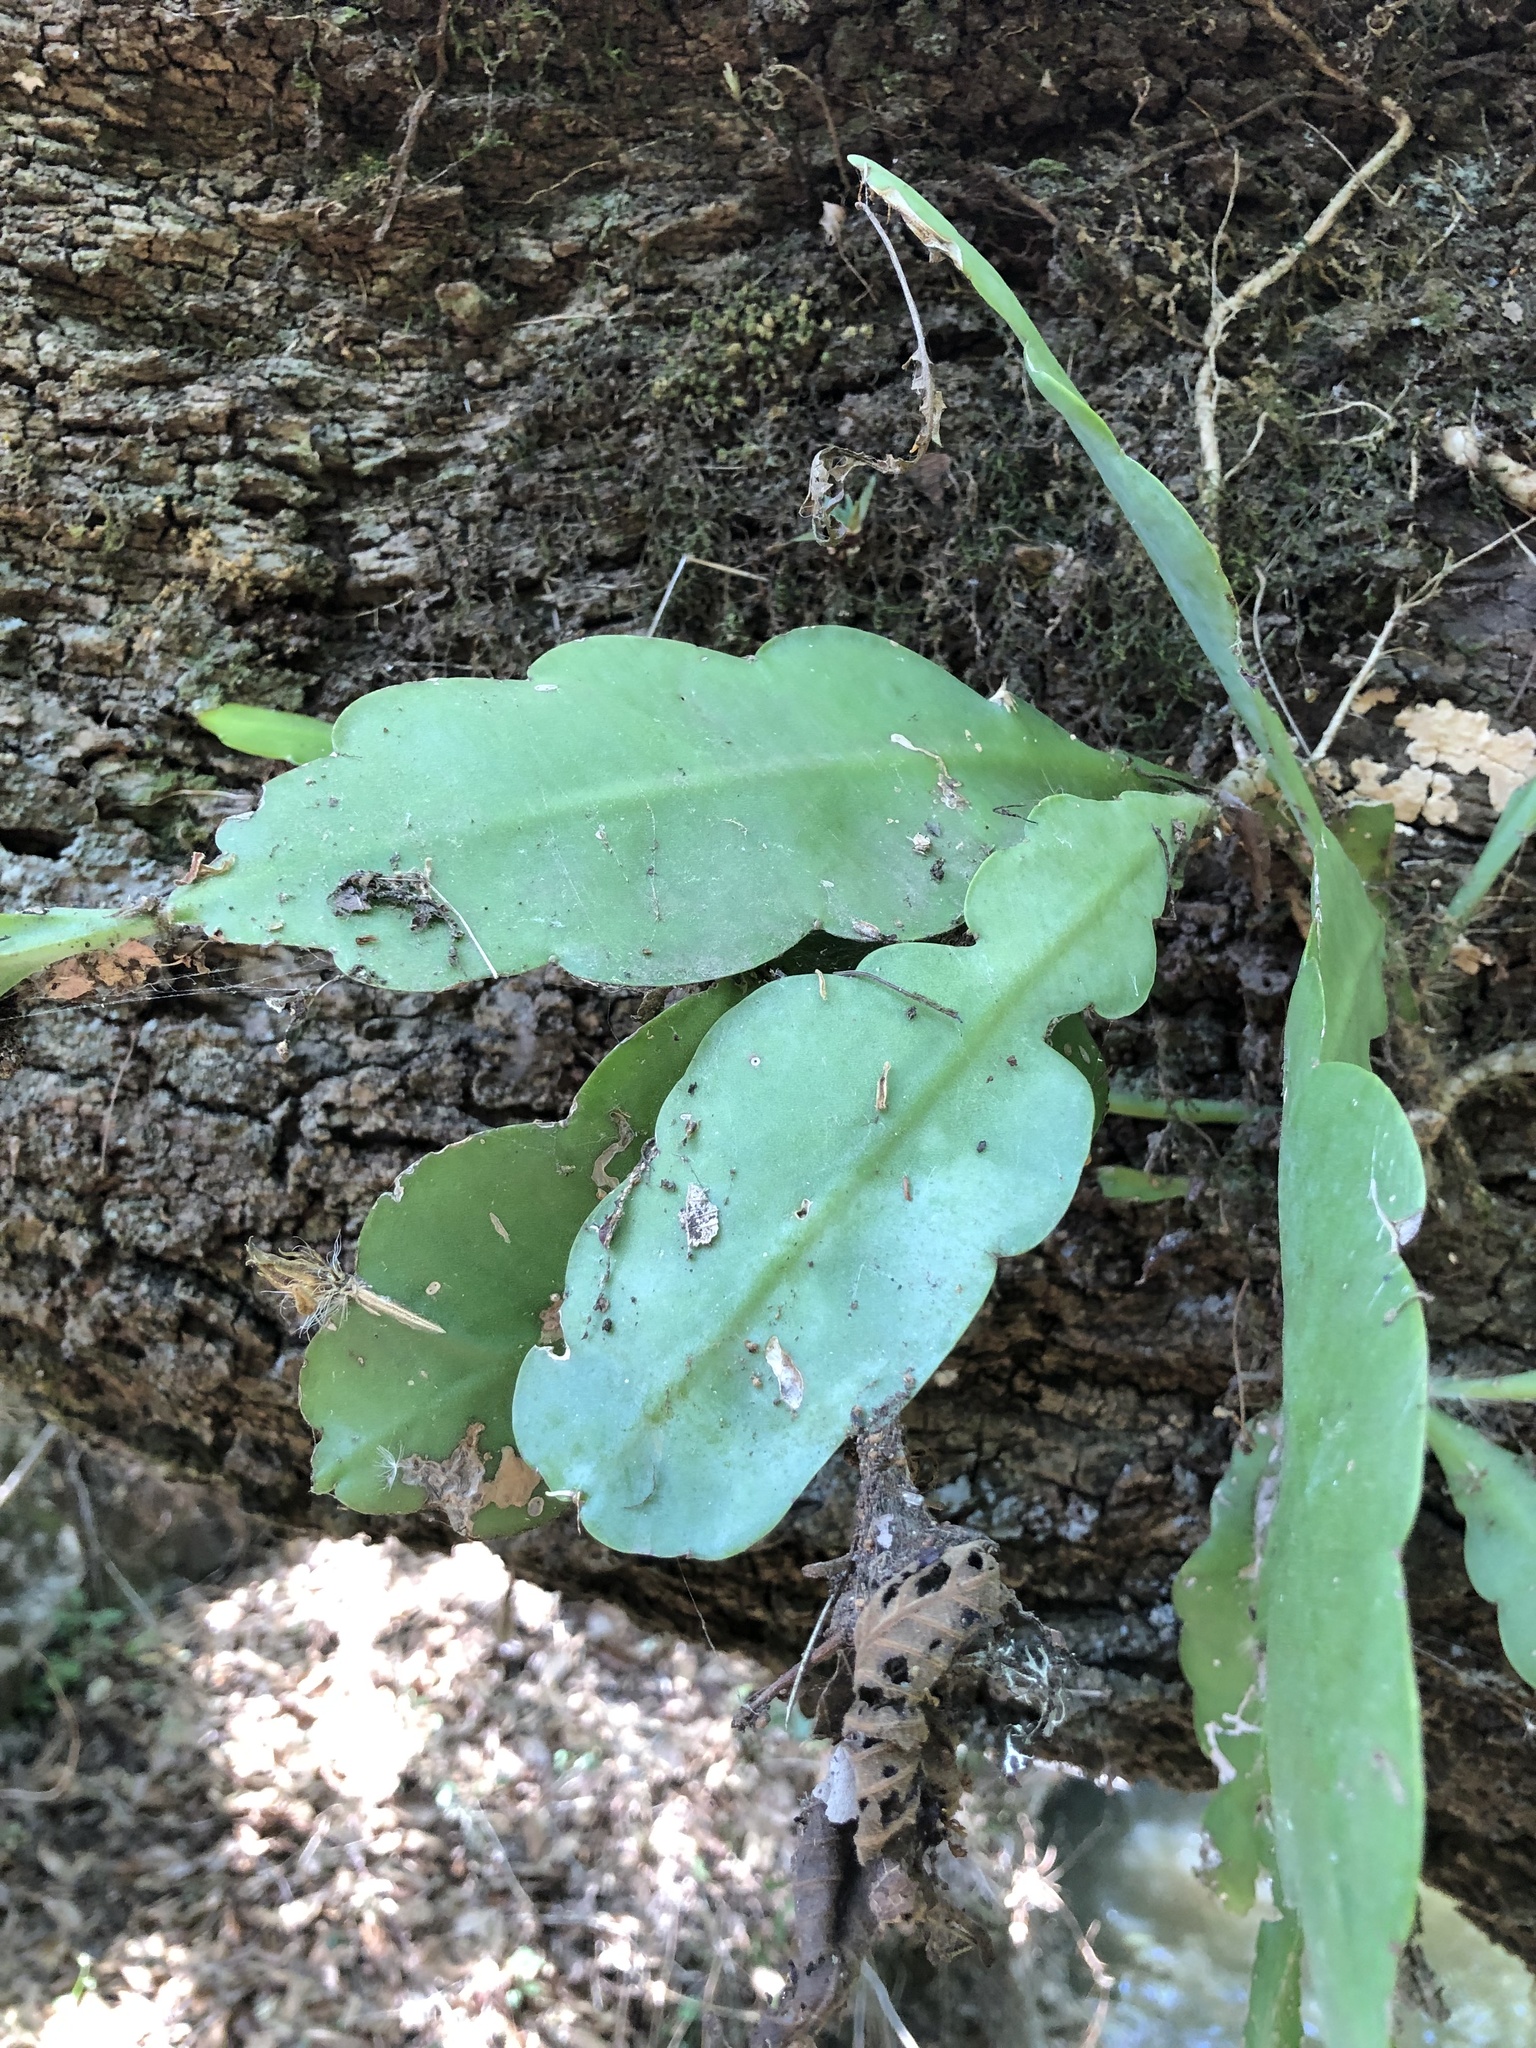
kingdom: Plantae
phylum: Tracheophyta
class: Magnoliopsida
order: Caryophyllales
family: Cactaceae
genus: Disocactus
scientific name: Disocactus crenatus
